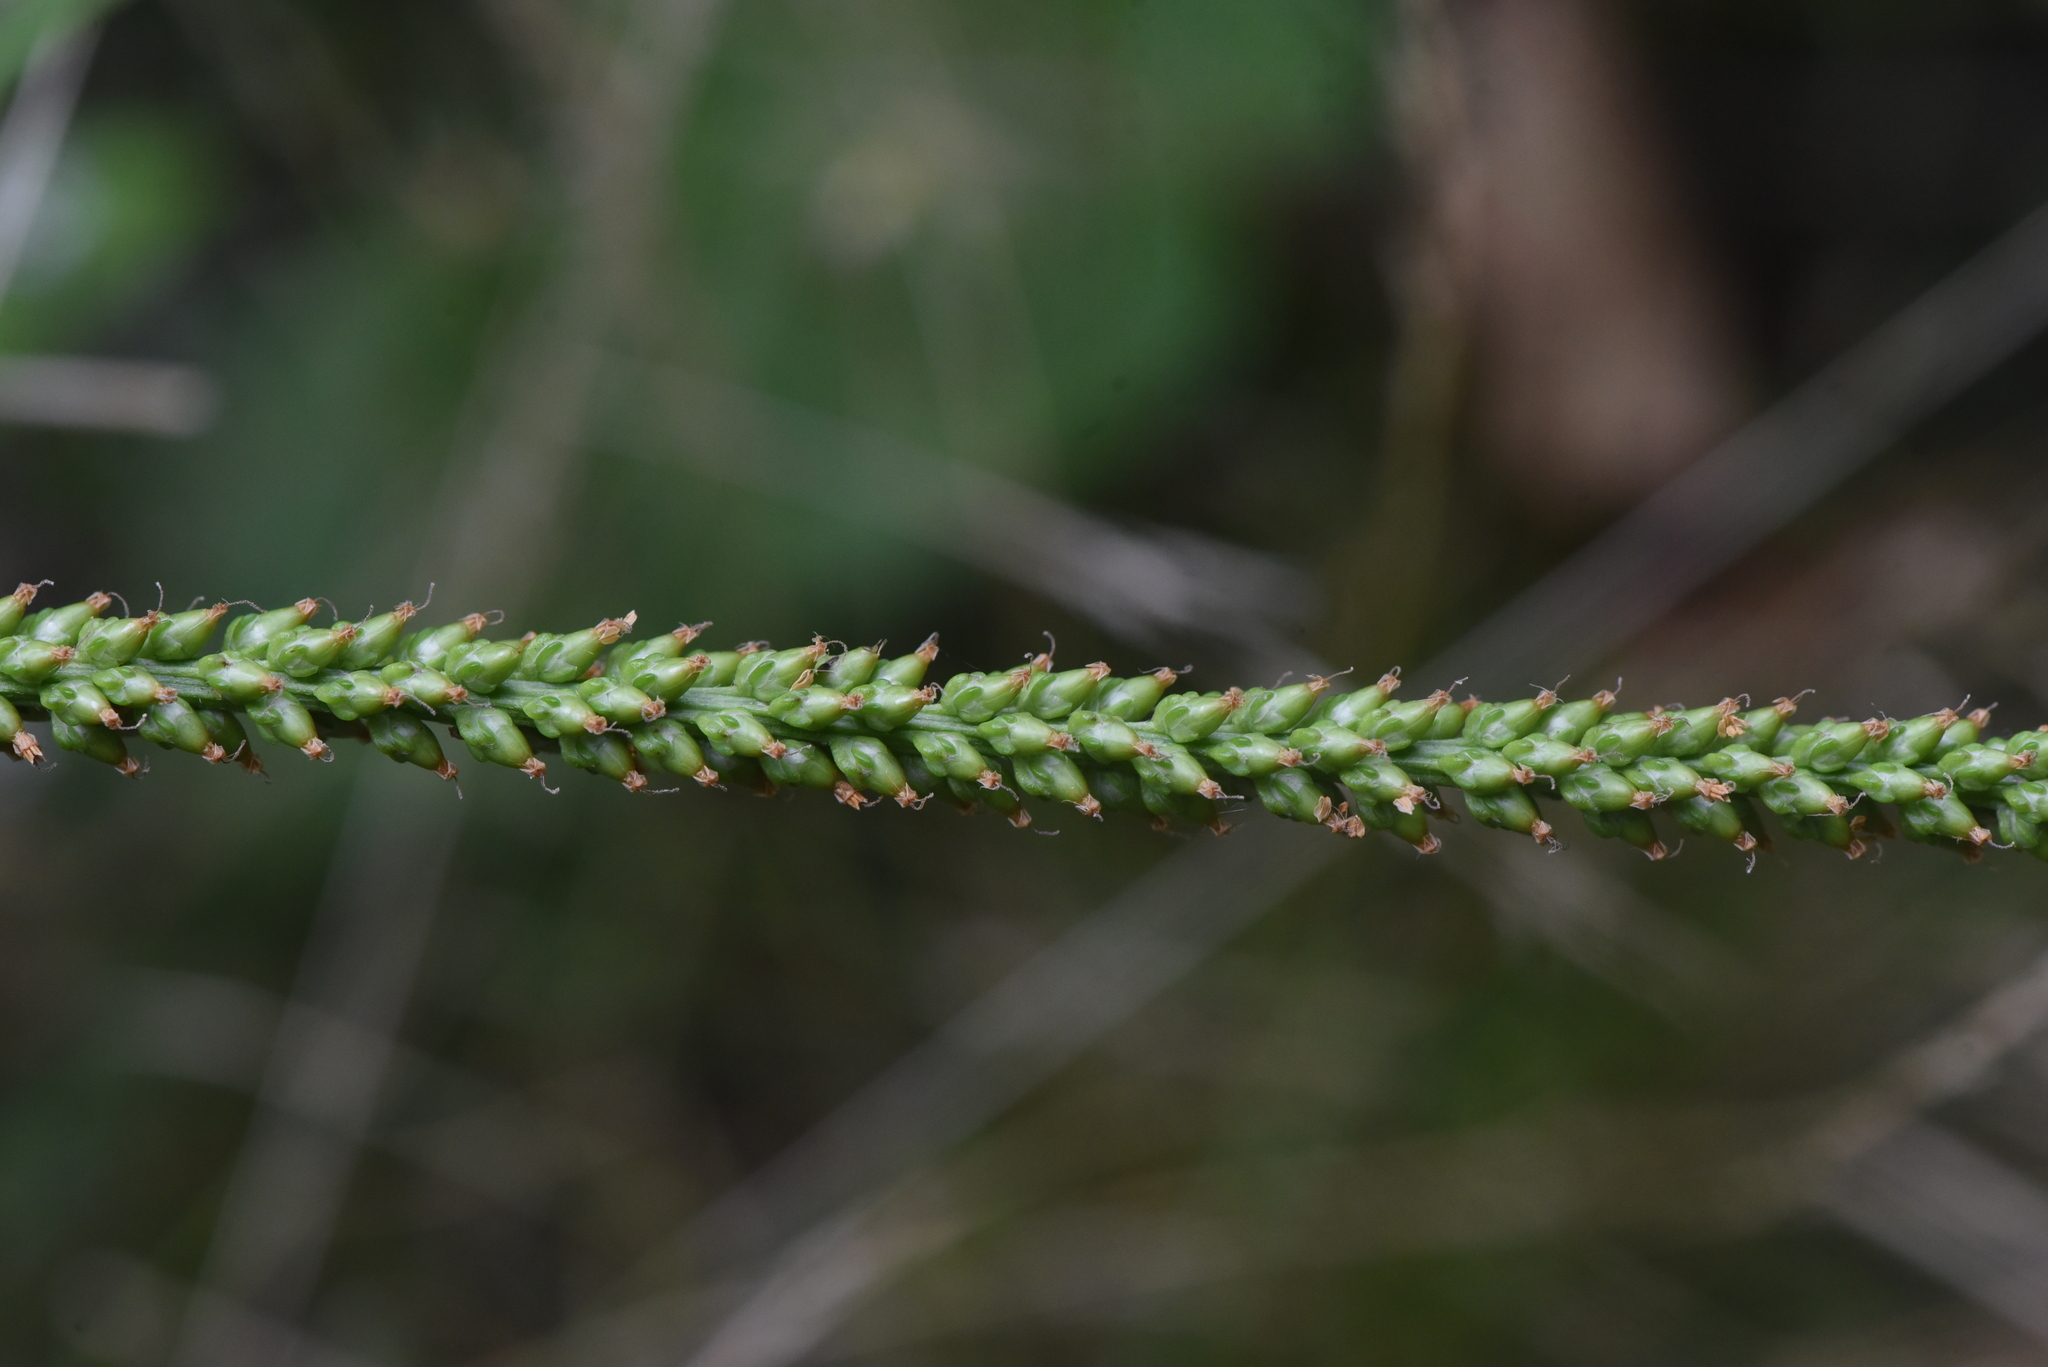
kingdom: Plantae
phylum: Tracheophyta
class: Magnoliopsida
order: Lamiales
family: Plantaginaceae
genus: Plantago
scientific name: Plantago major
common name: Common plantain
